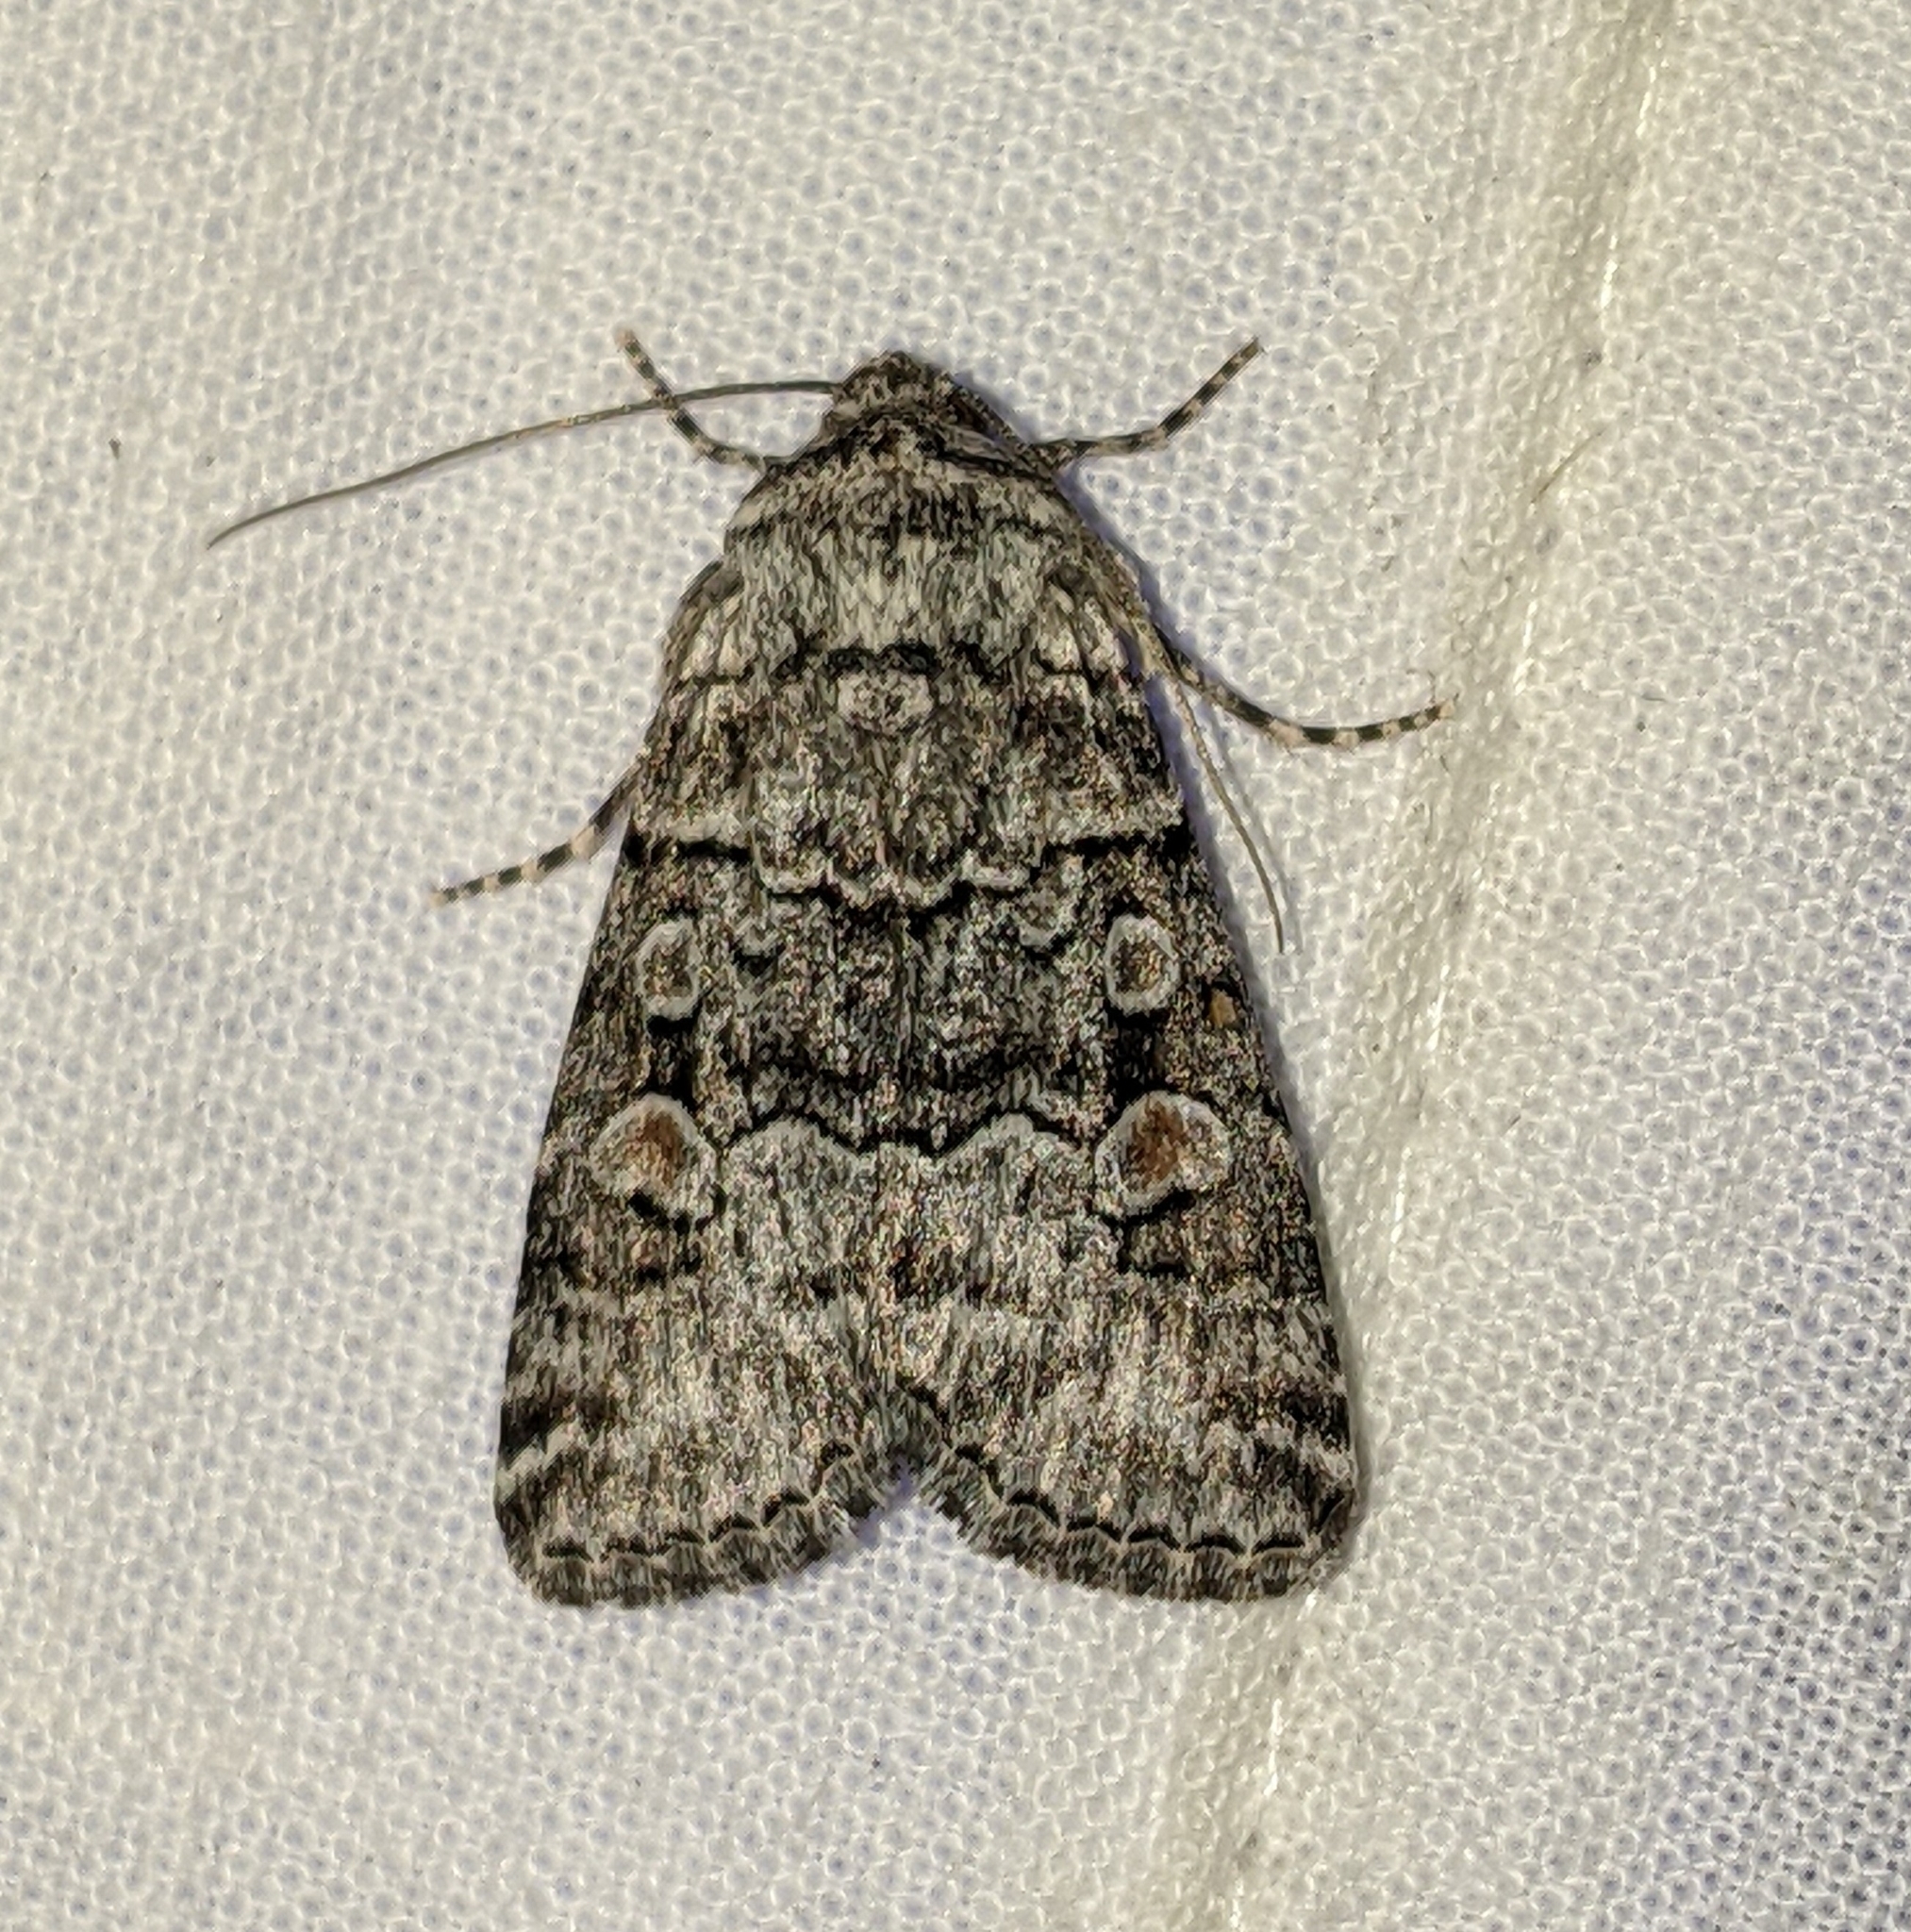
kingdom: Animalia
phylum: Arthropoda
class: Insecta
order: Lepidoptera
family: Noctuidae
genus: Sympistis
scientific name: Sympistis dunbari
